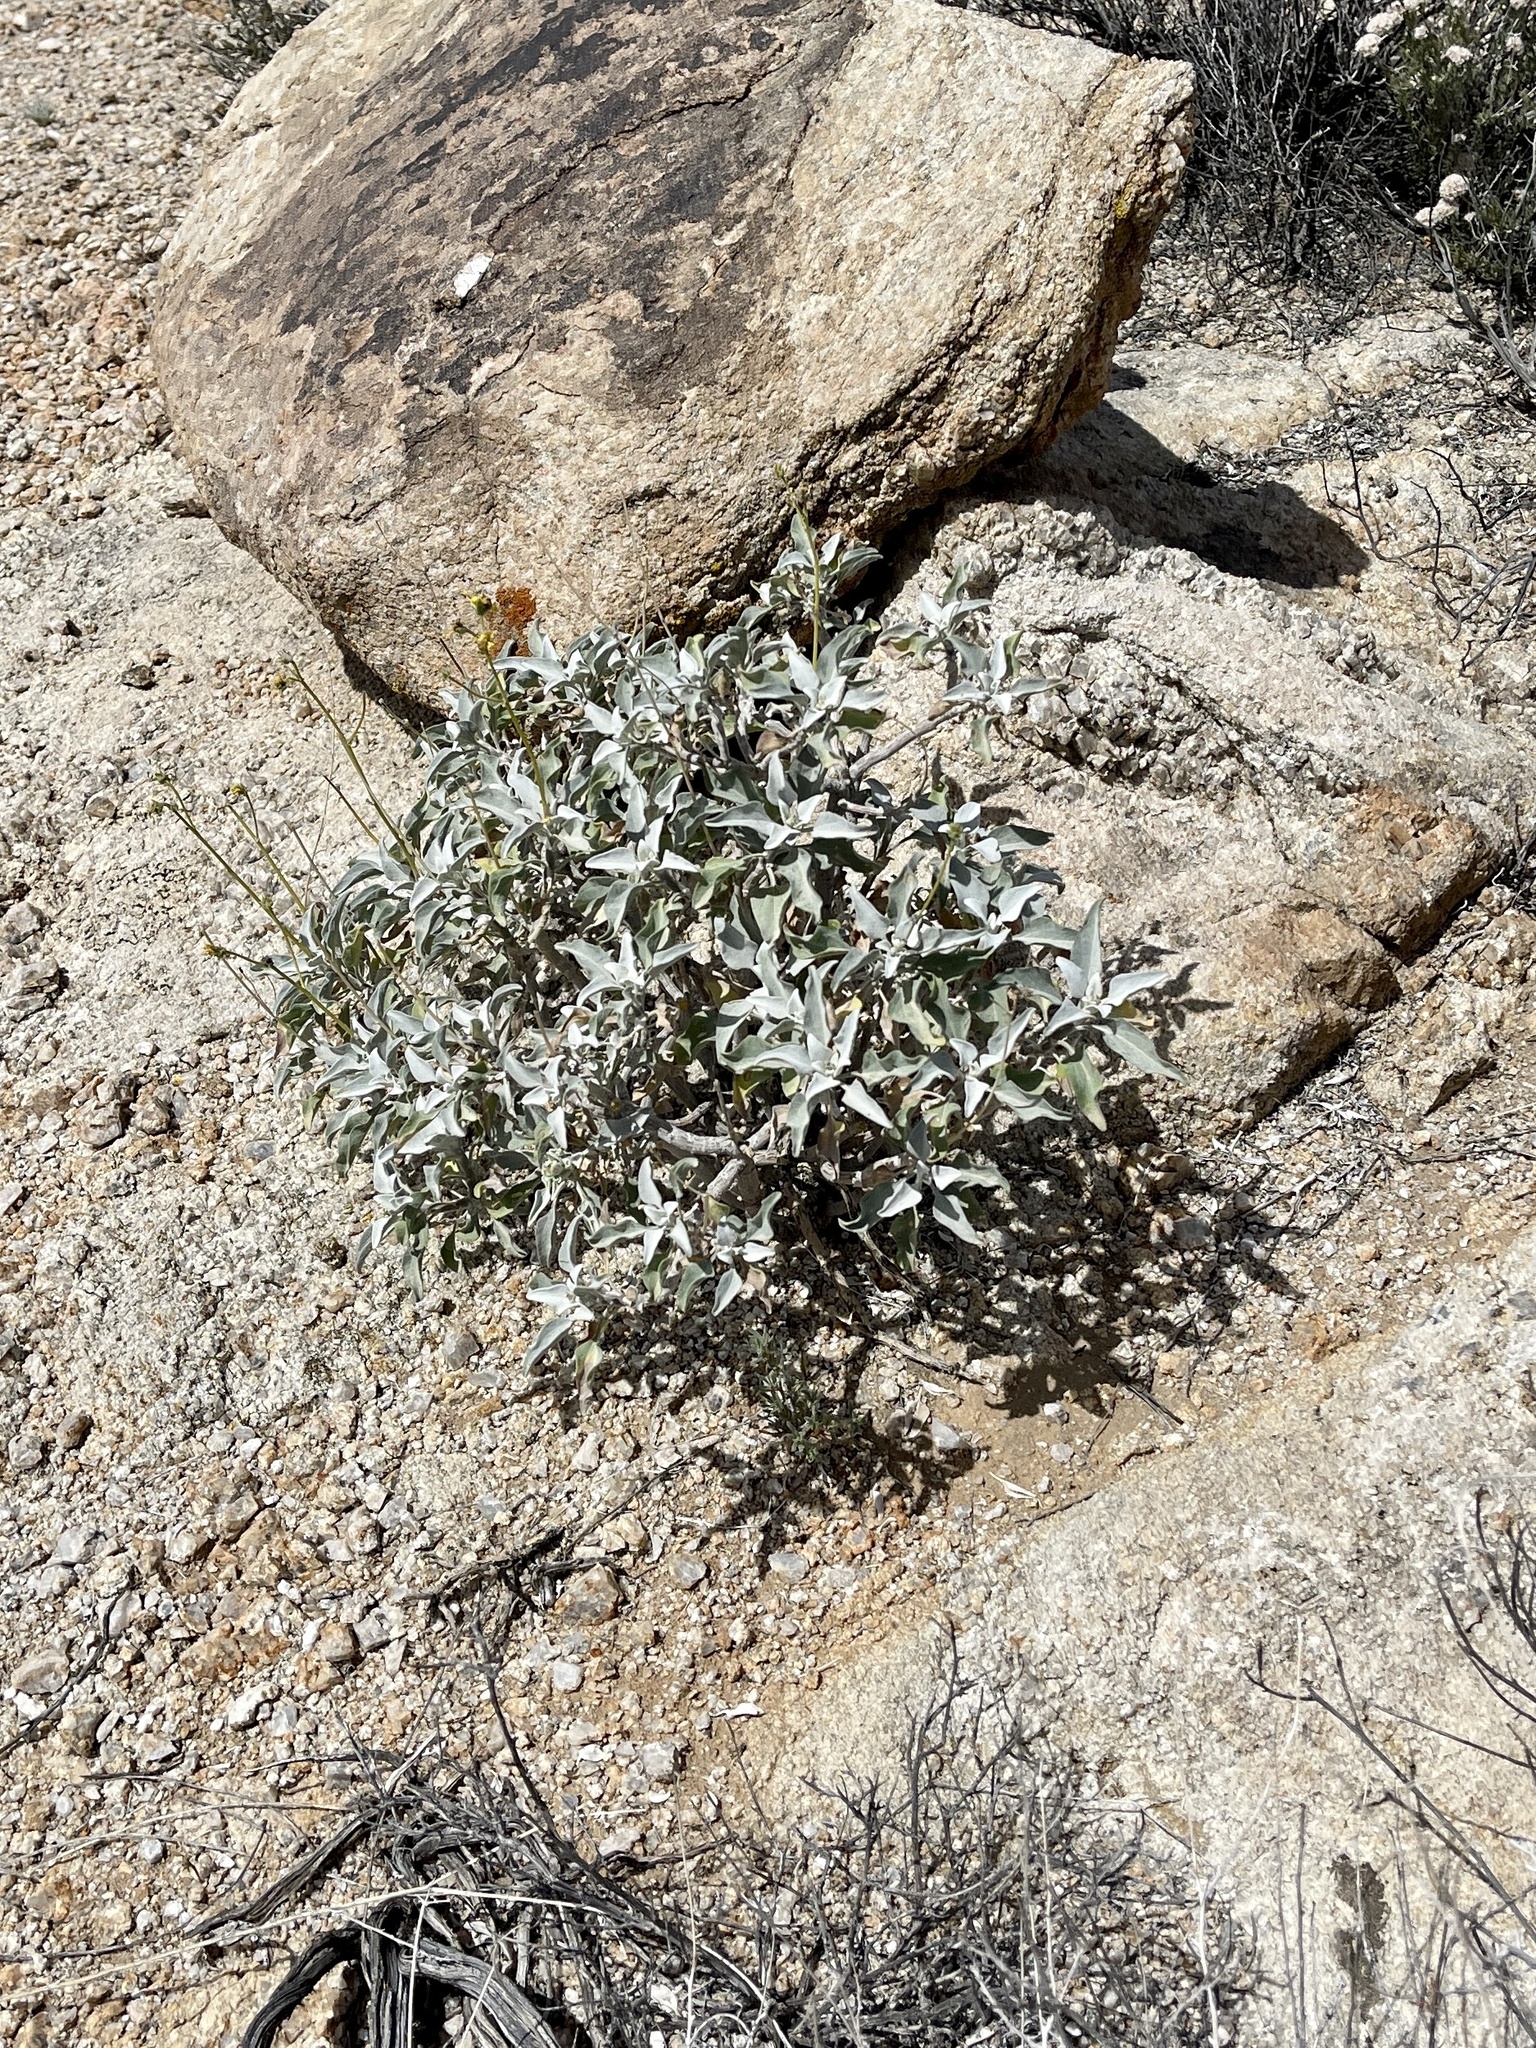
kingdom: Plantae
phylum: Tracheophyta
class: Magnoliopsida
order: Asterales
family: Asteraceae
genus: Encelia
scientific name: Encelia farinosa
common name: Brittlebush
